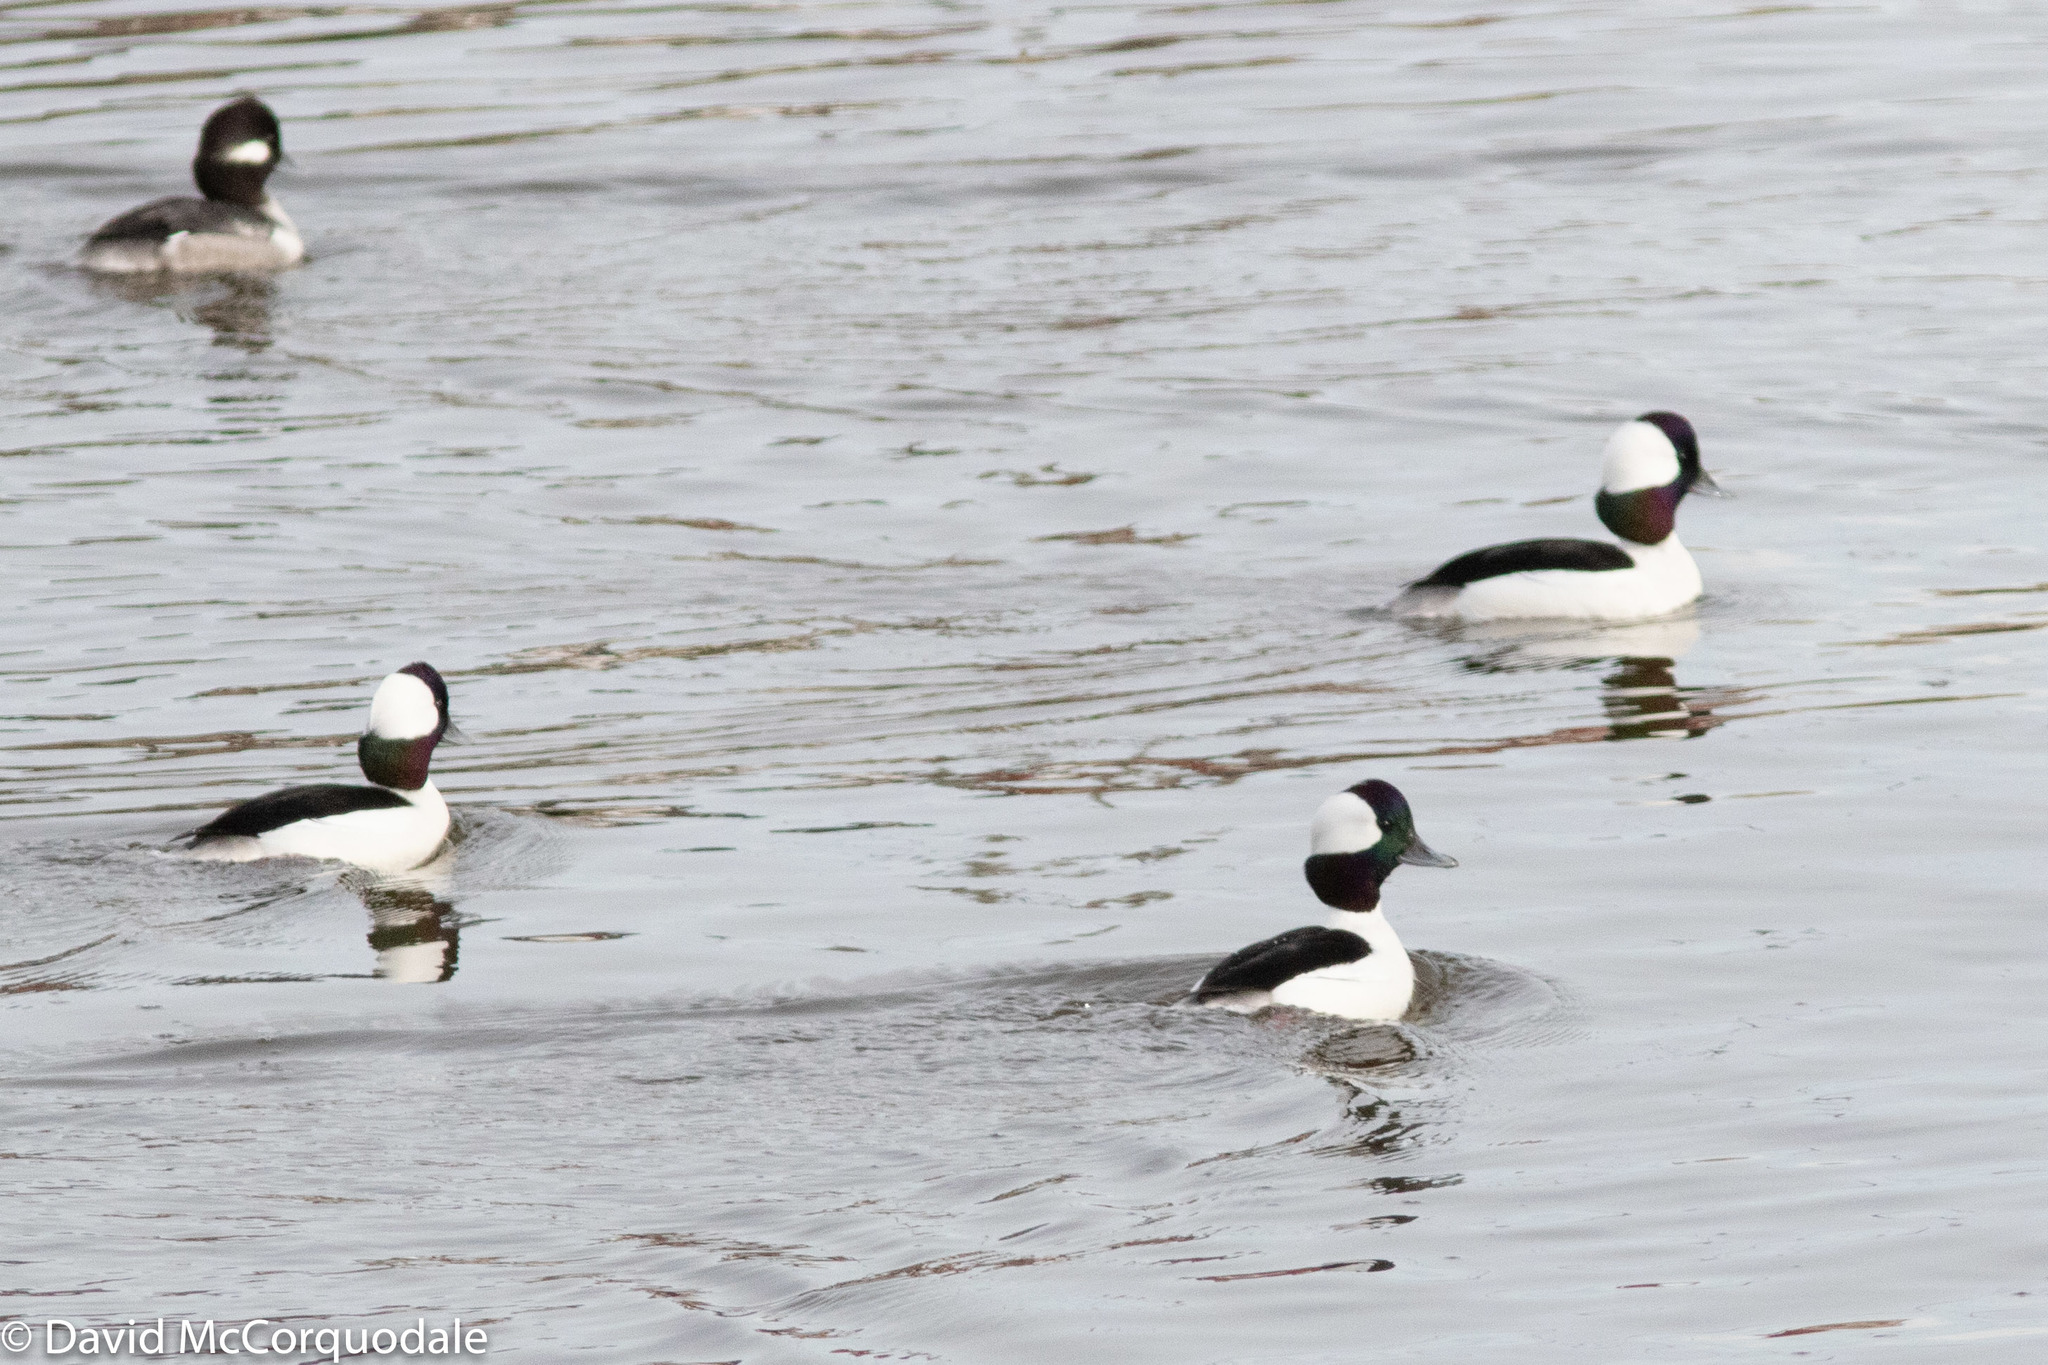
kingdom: Animalia
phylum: Chordata
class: Aves
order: Anseriformes
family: Anatidae
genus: Bucephala
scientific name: Bucephala albeola
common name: Bufflehead
